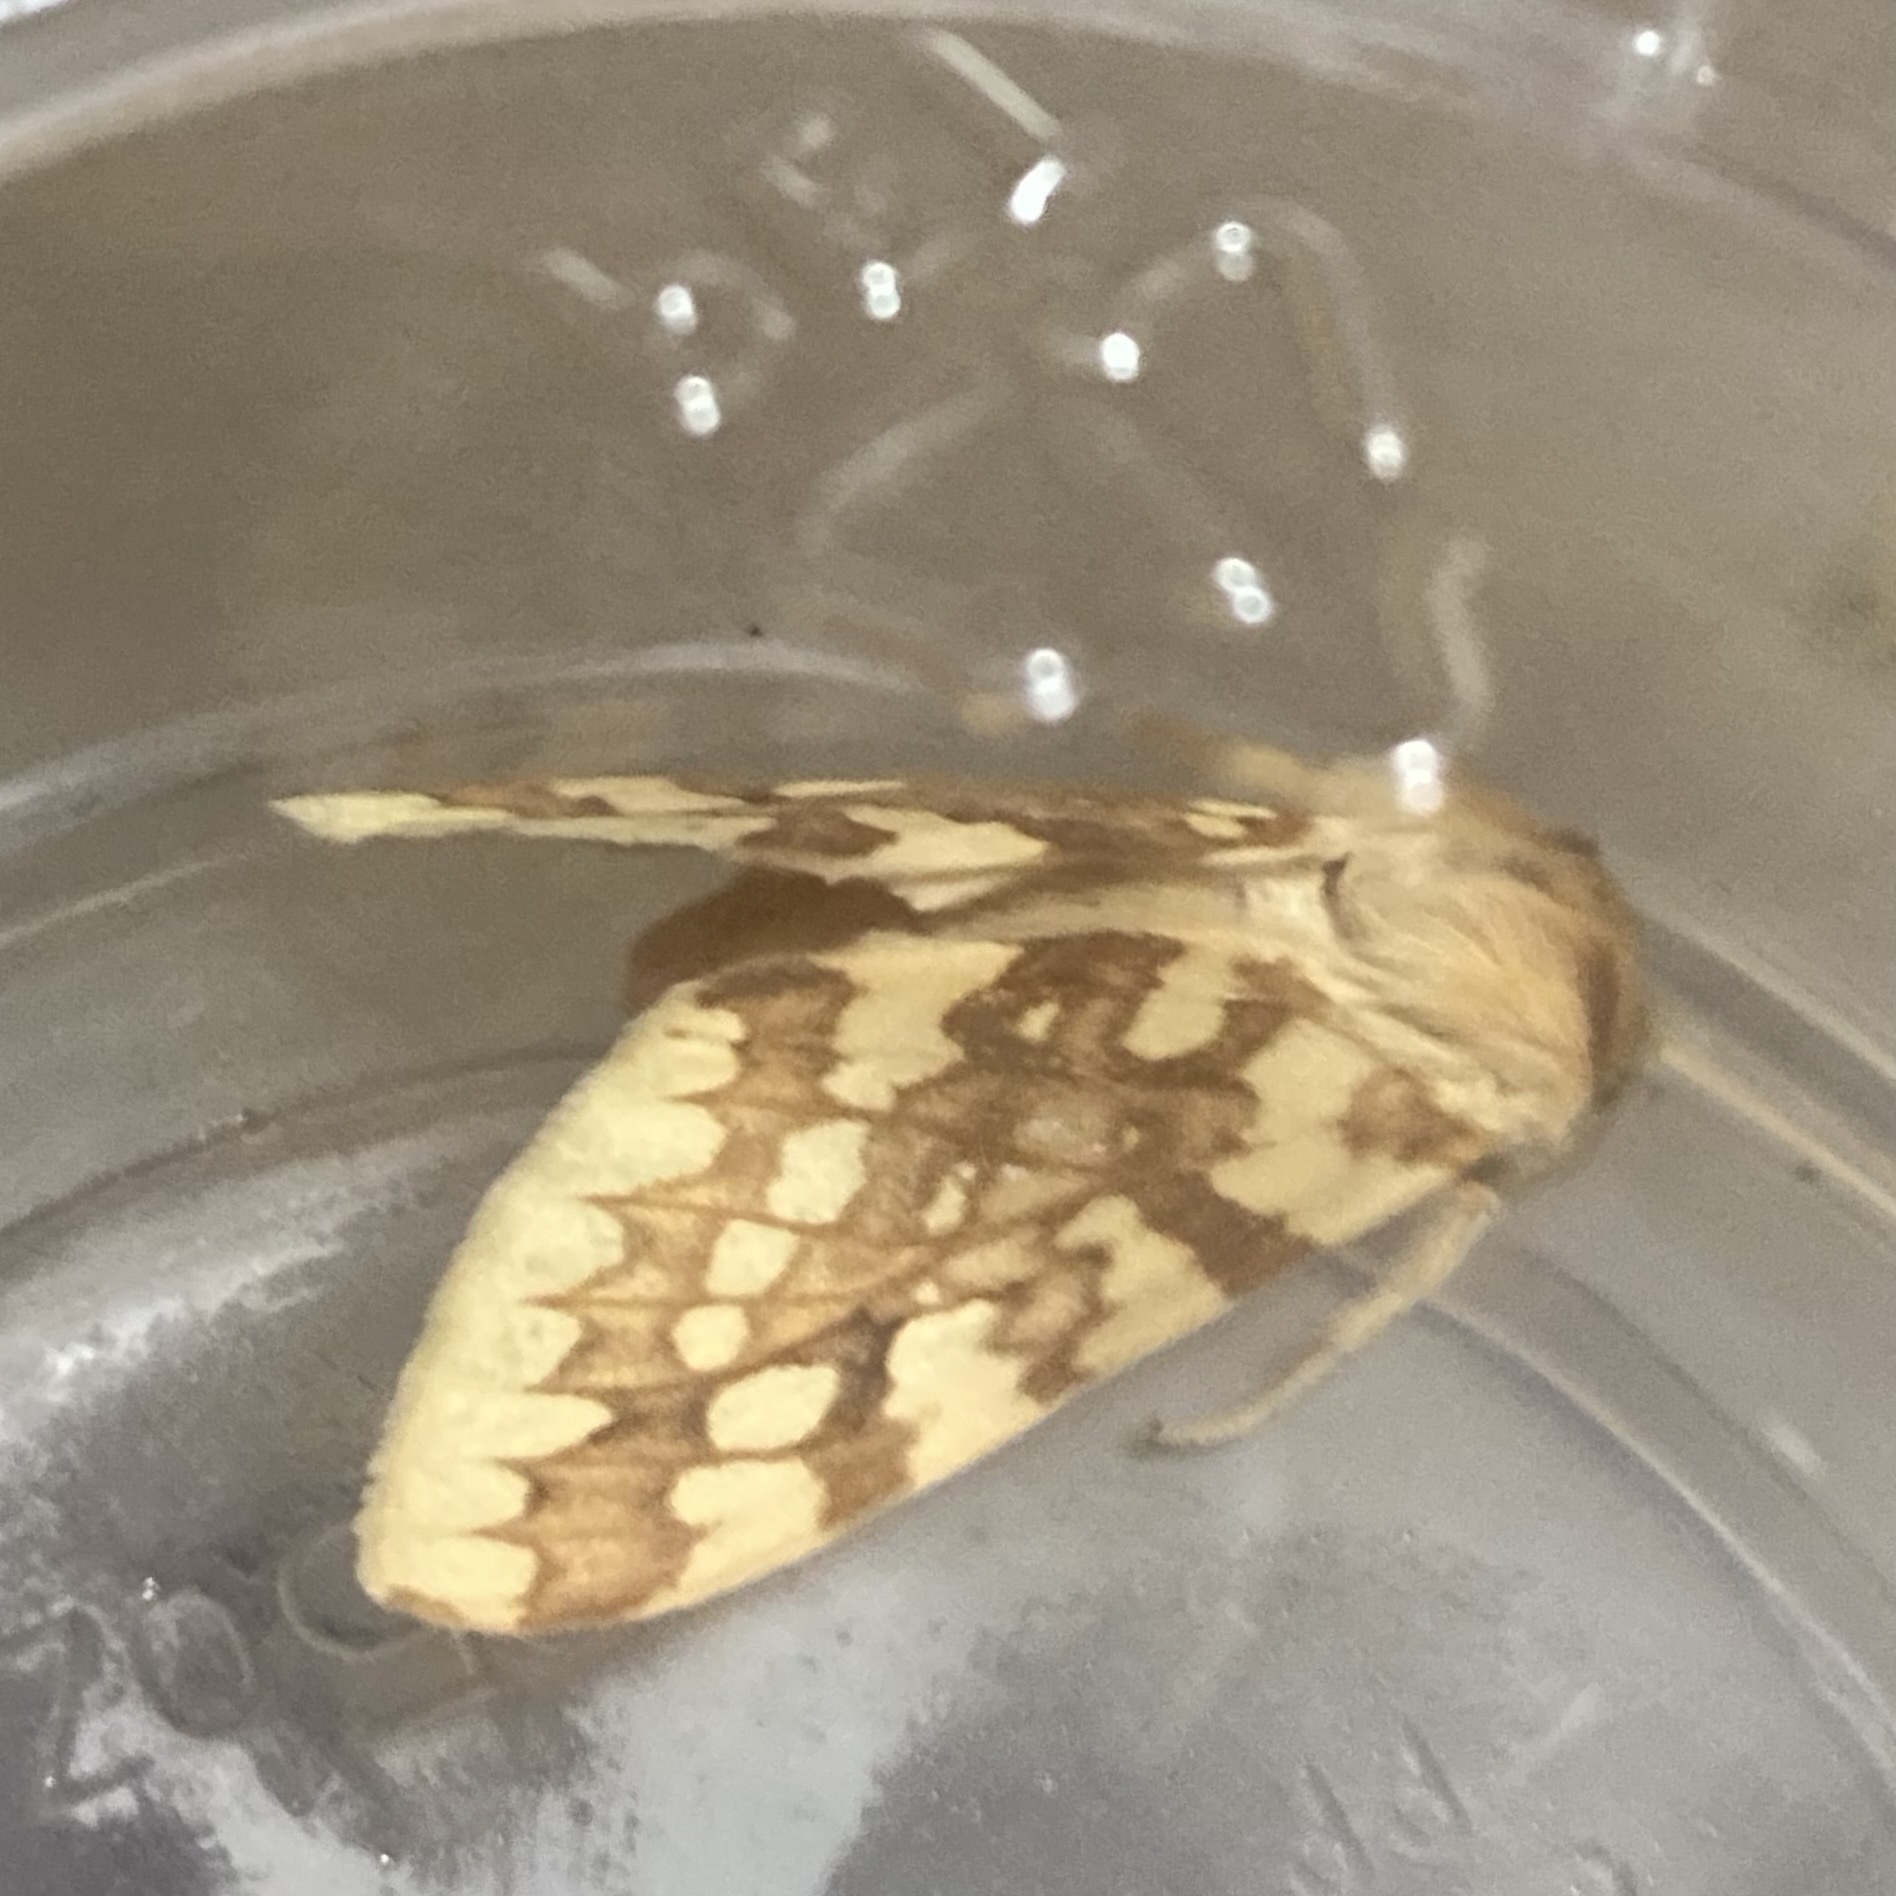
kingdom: Animalia
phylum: Arthropoda
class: Insecta
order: Lepidoptera
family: Erebidae
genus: Lophocampa
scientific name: Lophocampa maculata
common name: Spotted tussock moth
